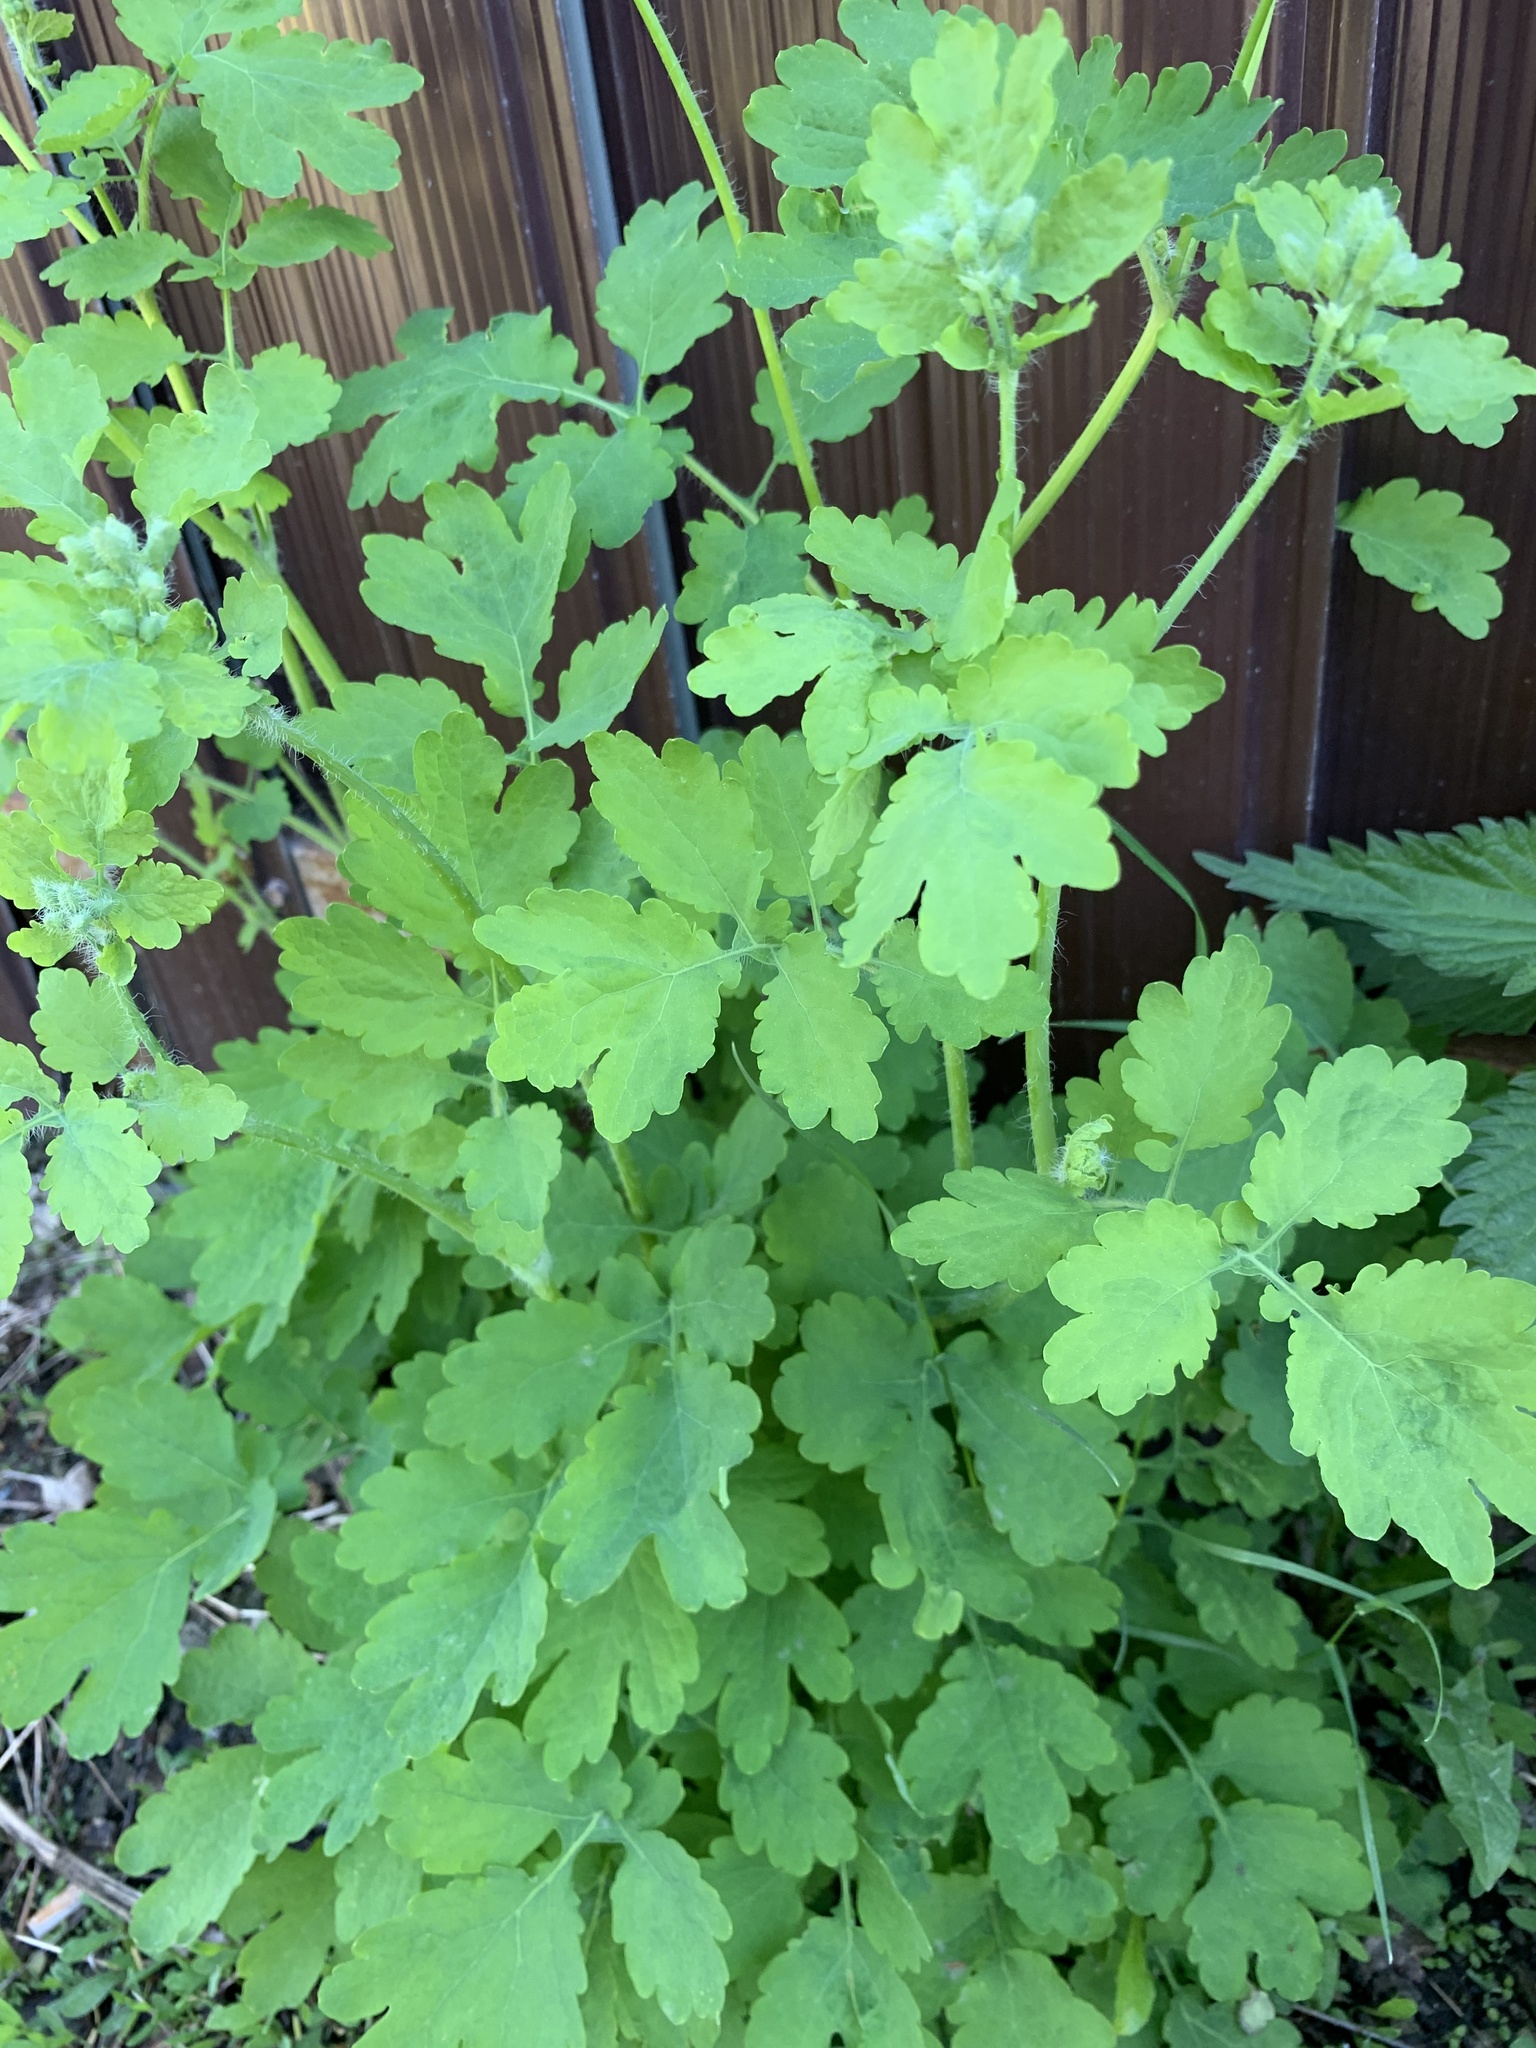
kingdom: Plantae
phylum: Tracheophyta
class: Magnoliopsida
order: Ranunculales
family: Papaveraceae
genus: Chelidonium
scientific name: Chelidonium majus
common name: Greater celandine
